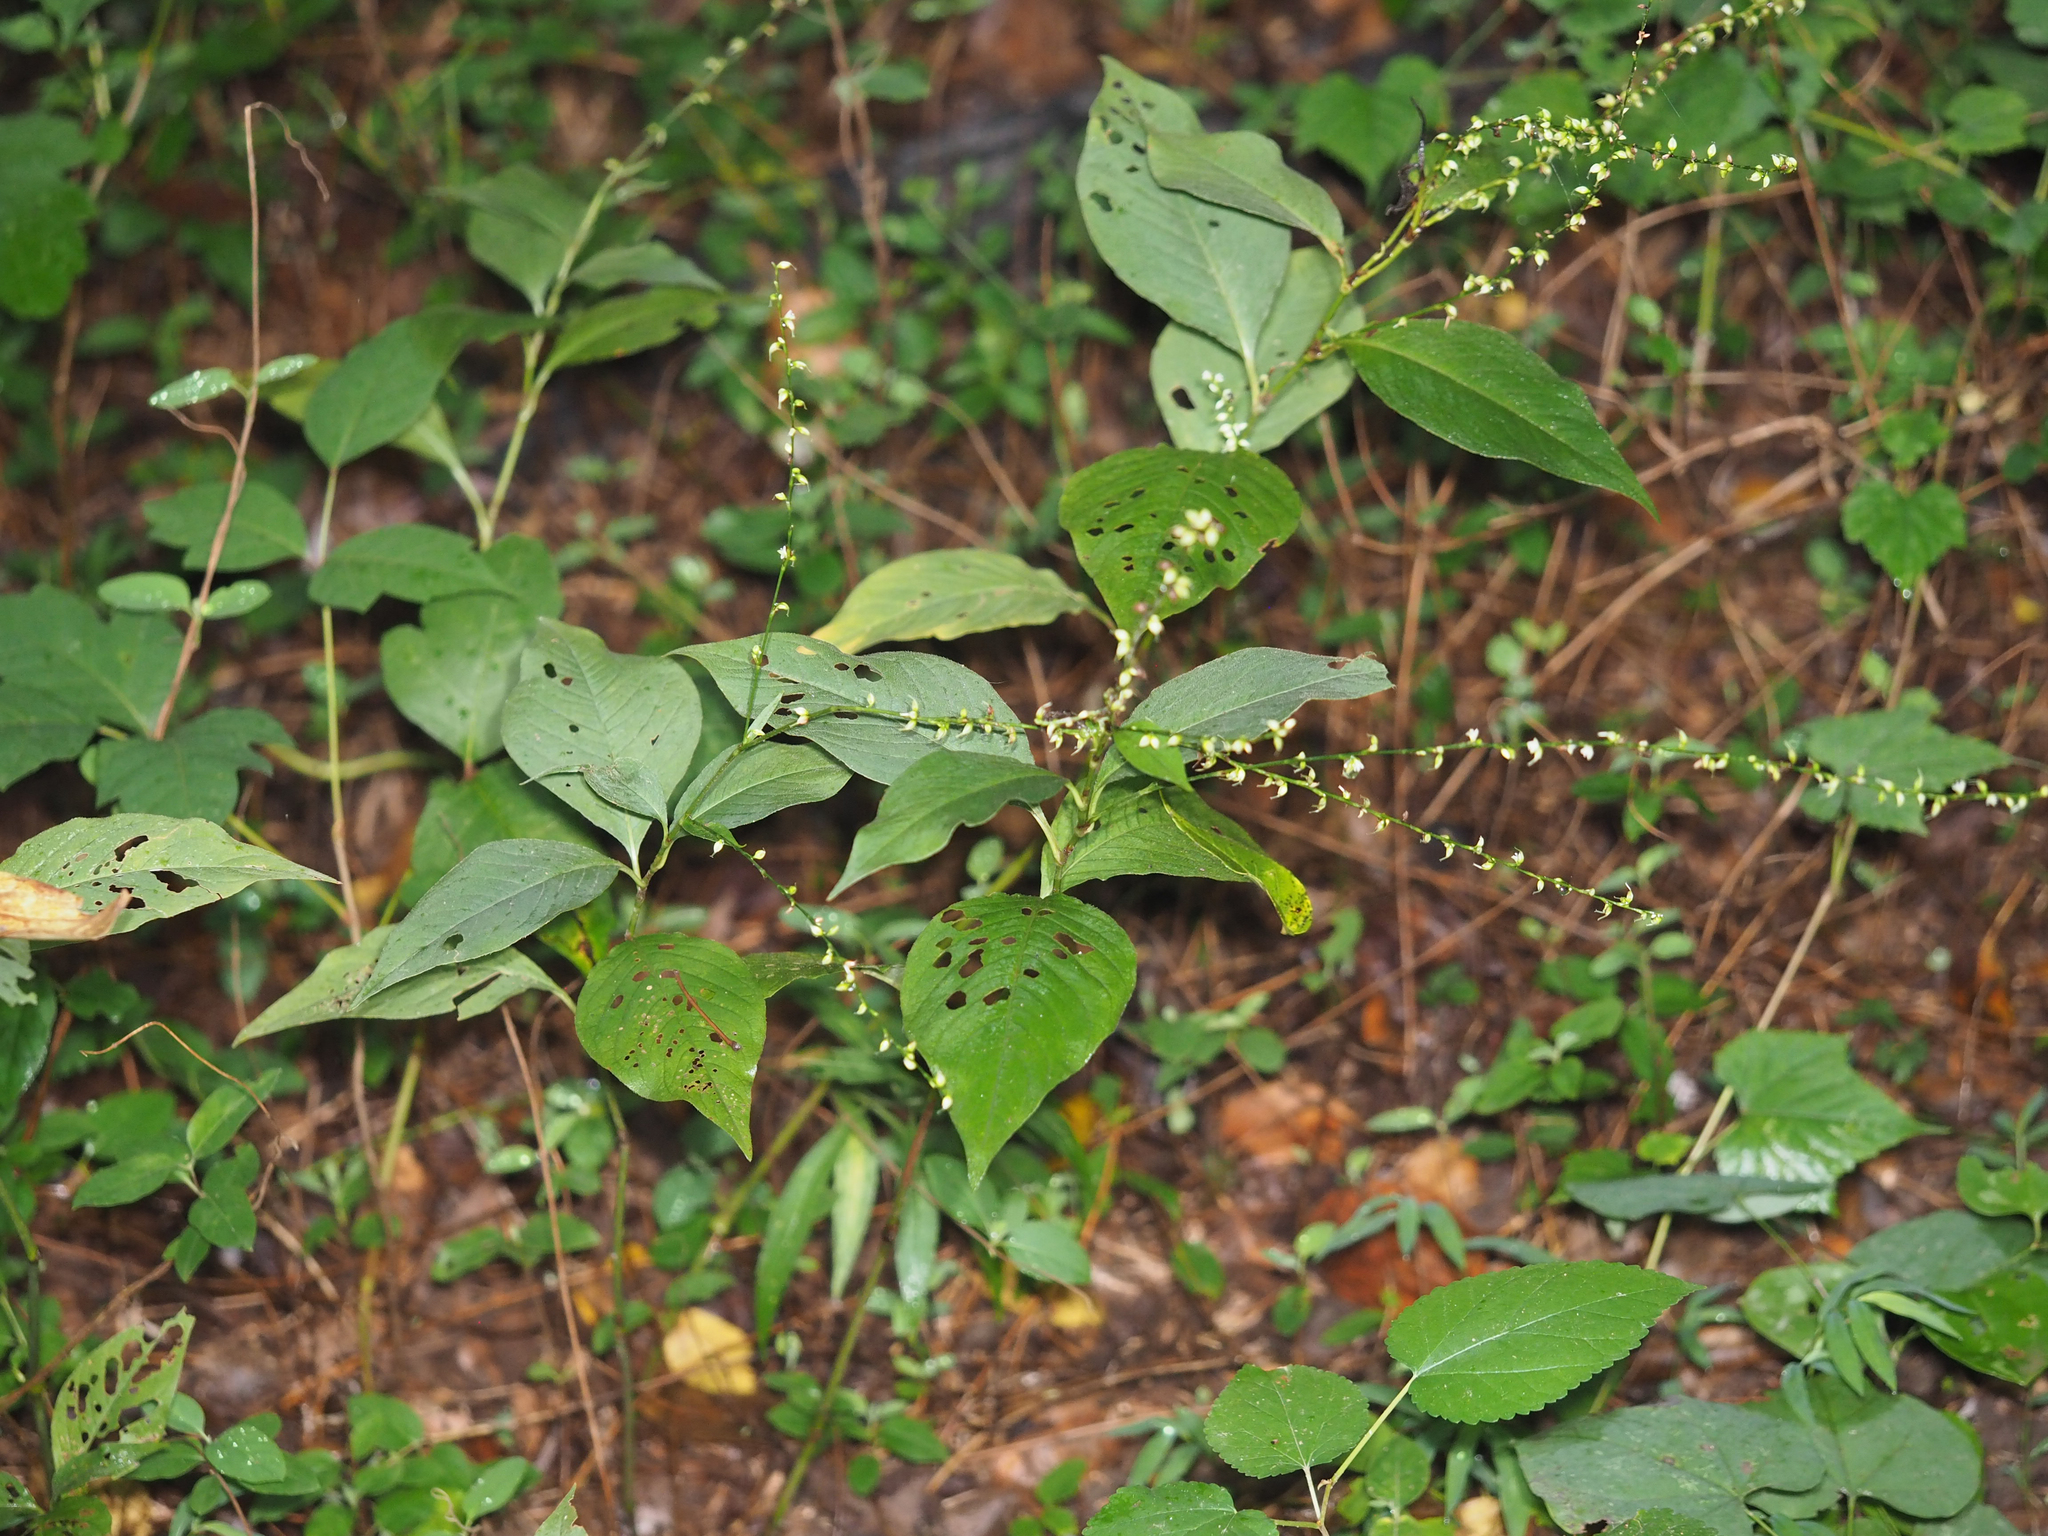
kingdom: Plantae
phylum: Tracheophyta
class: Magnoliopsida
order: Caryophyllales
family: Polygonaceae
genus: Persicaria
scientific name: Persicaria virginiana
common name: Jumpseed
